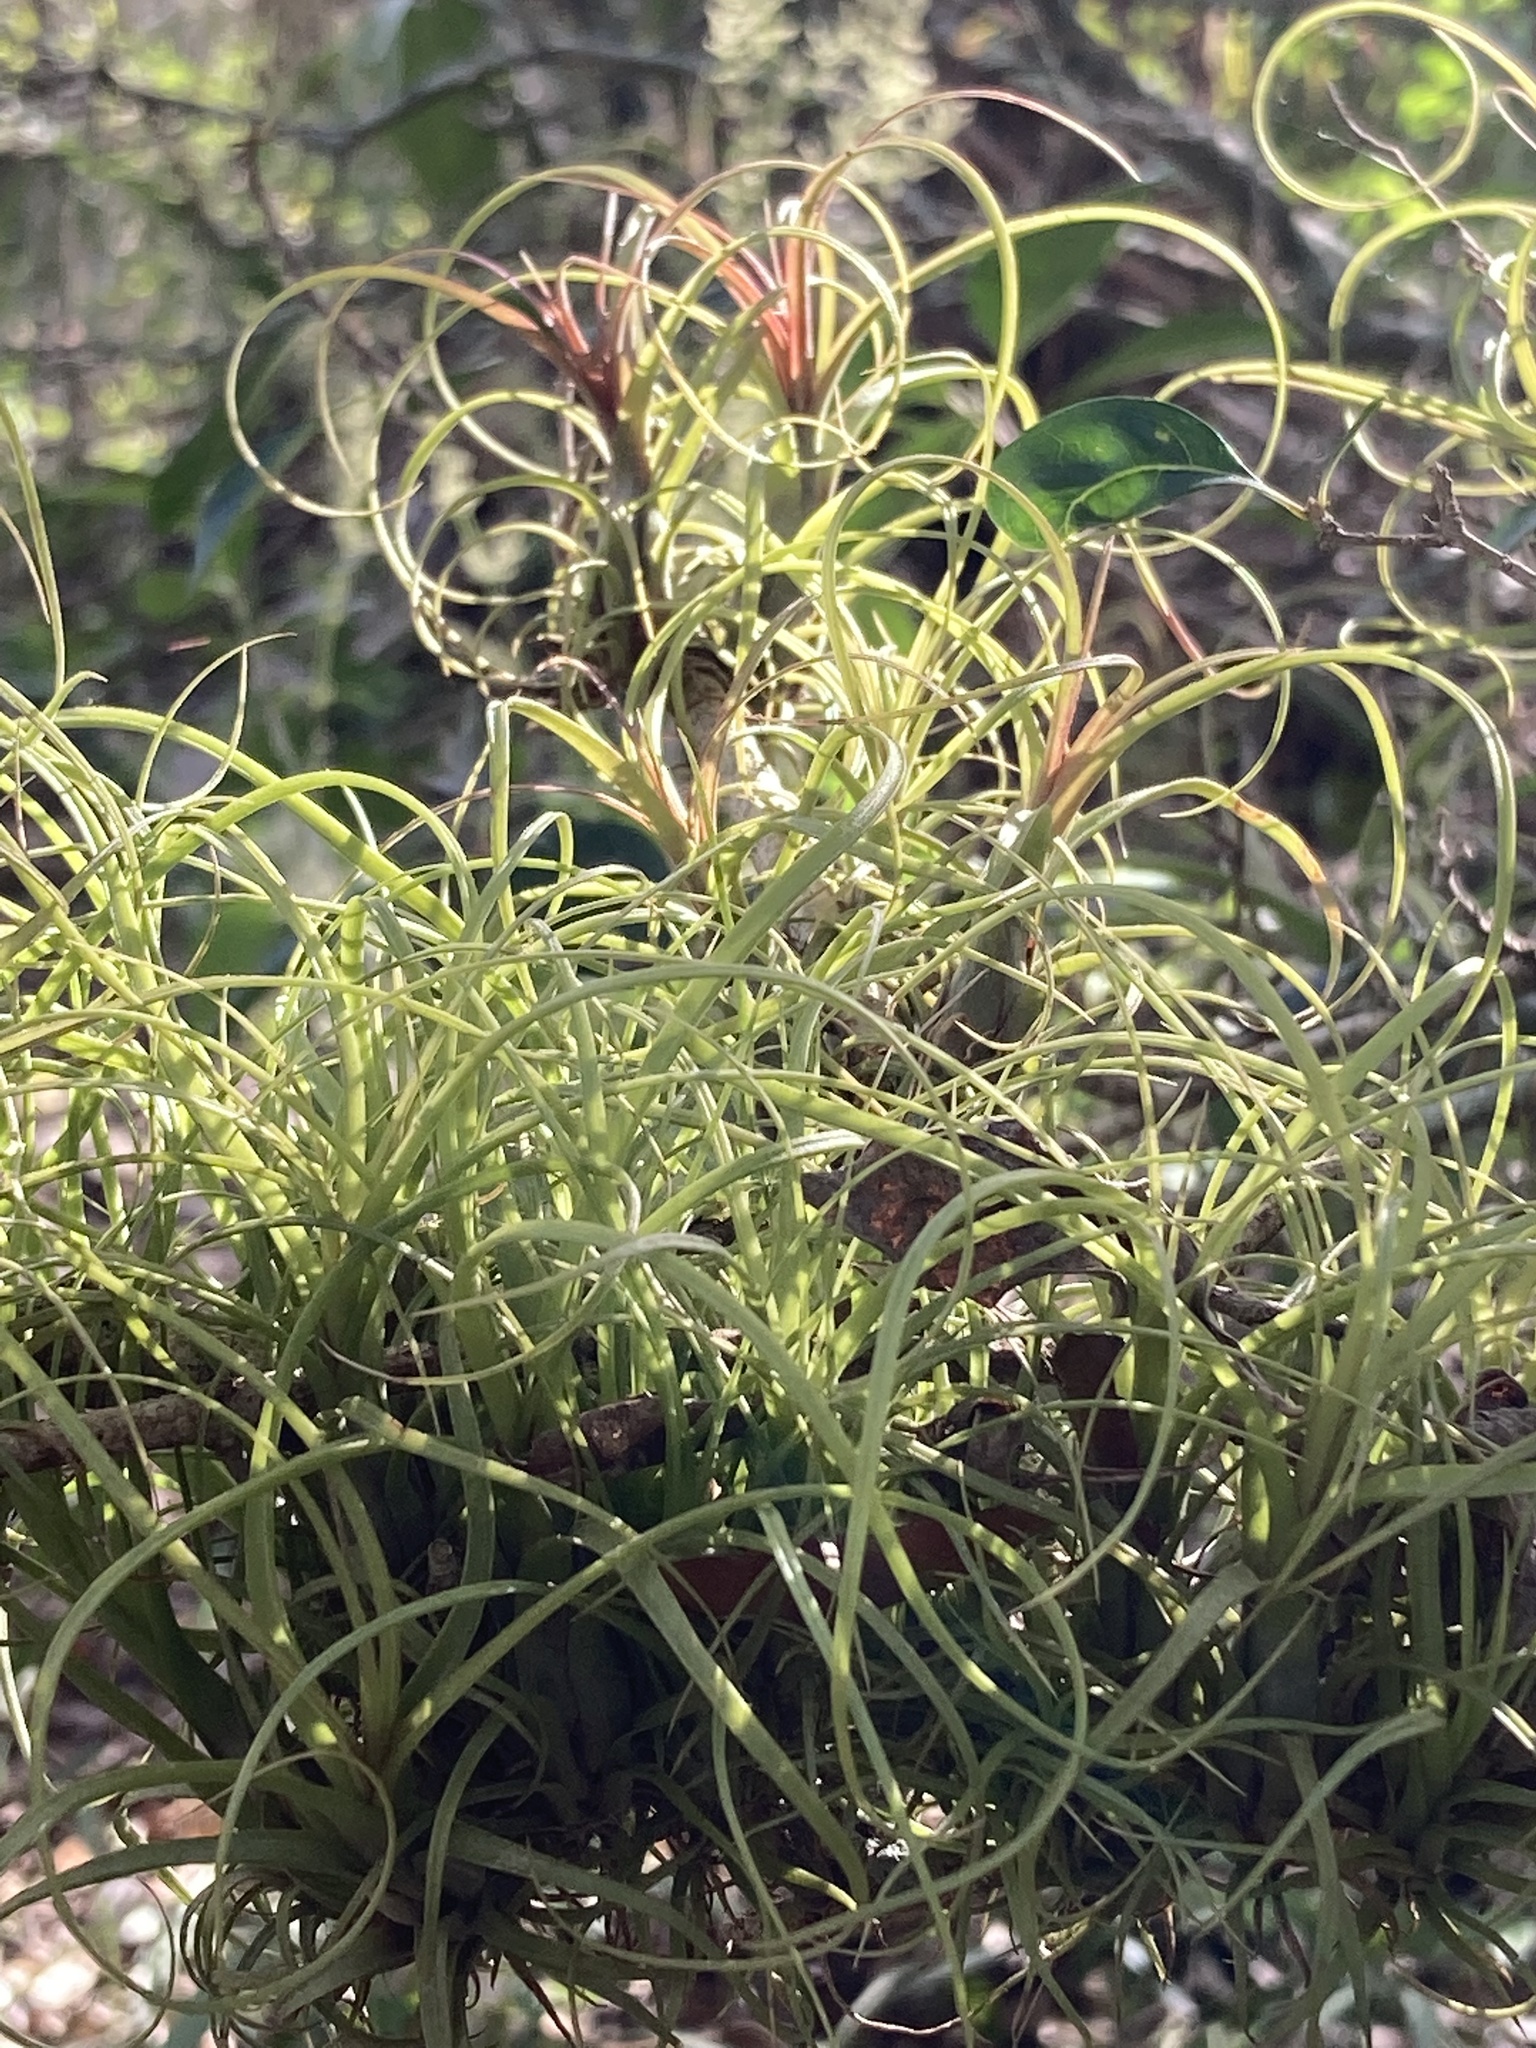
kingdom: Plantae
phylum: Tracheophyta
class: Liliopsida
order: Poales
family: Bromeliaceae
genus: Tillandsia
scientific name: Tillandsia balbisiana
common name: Northern needleleaf
